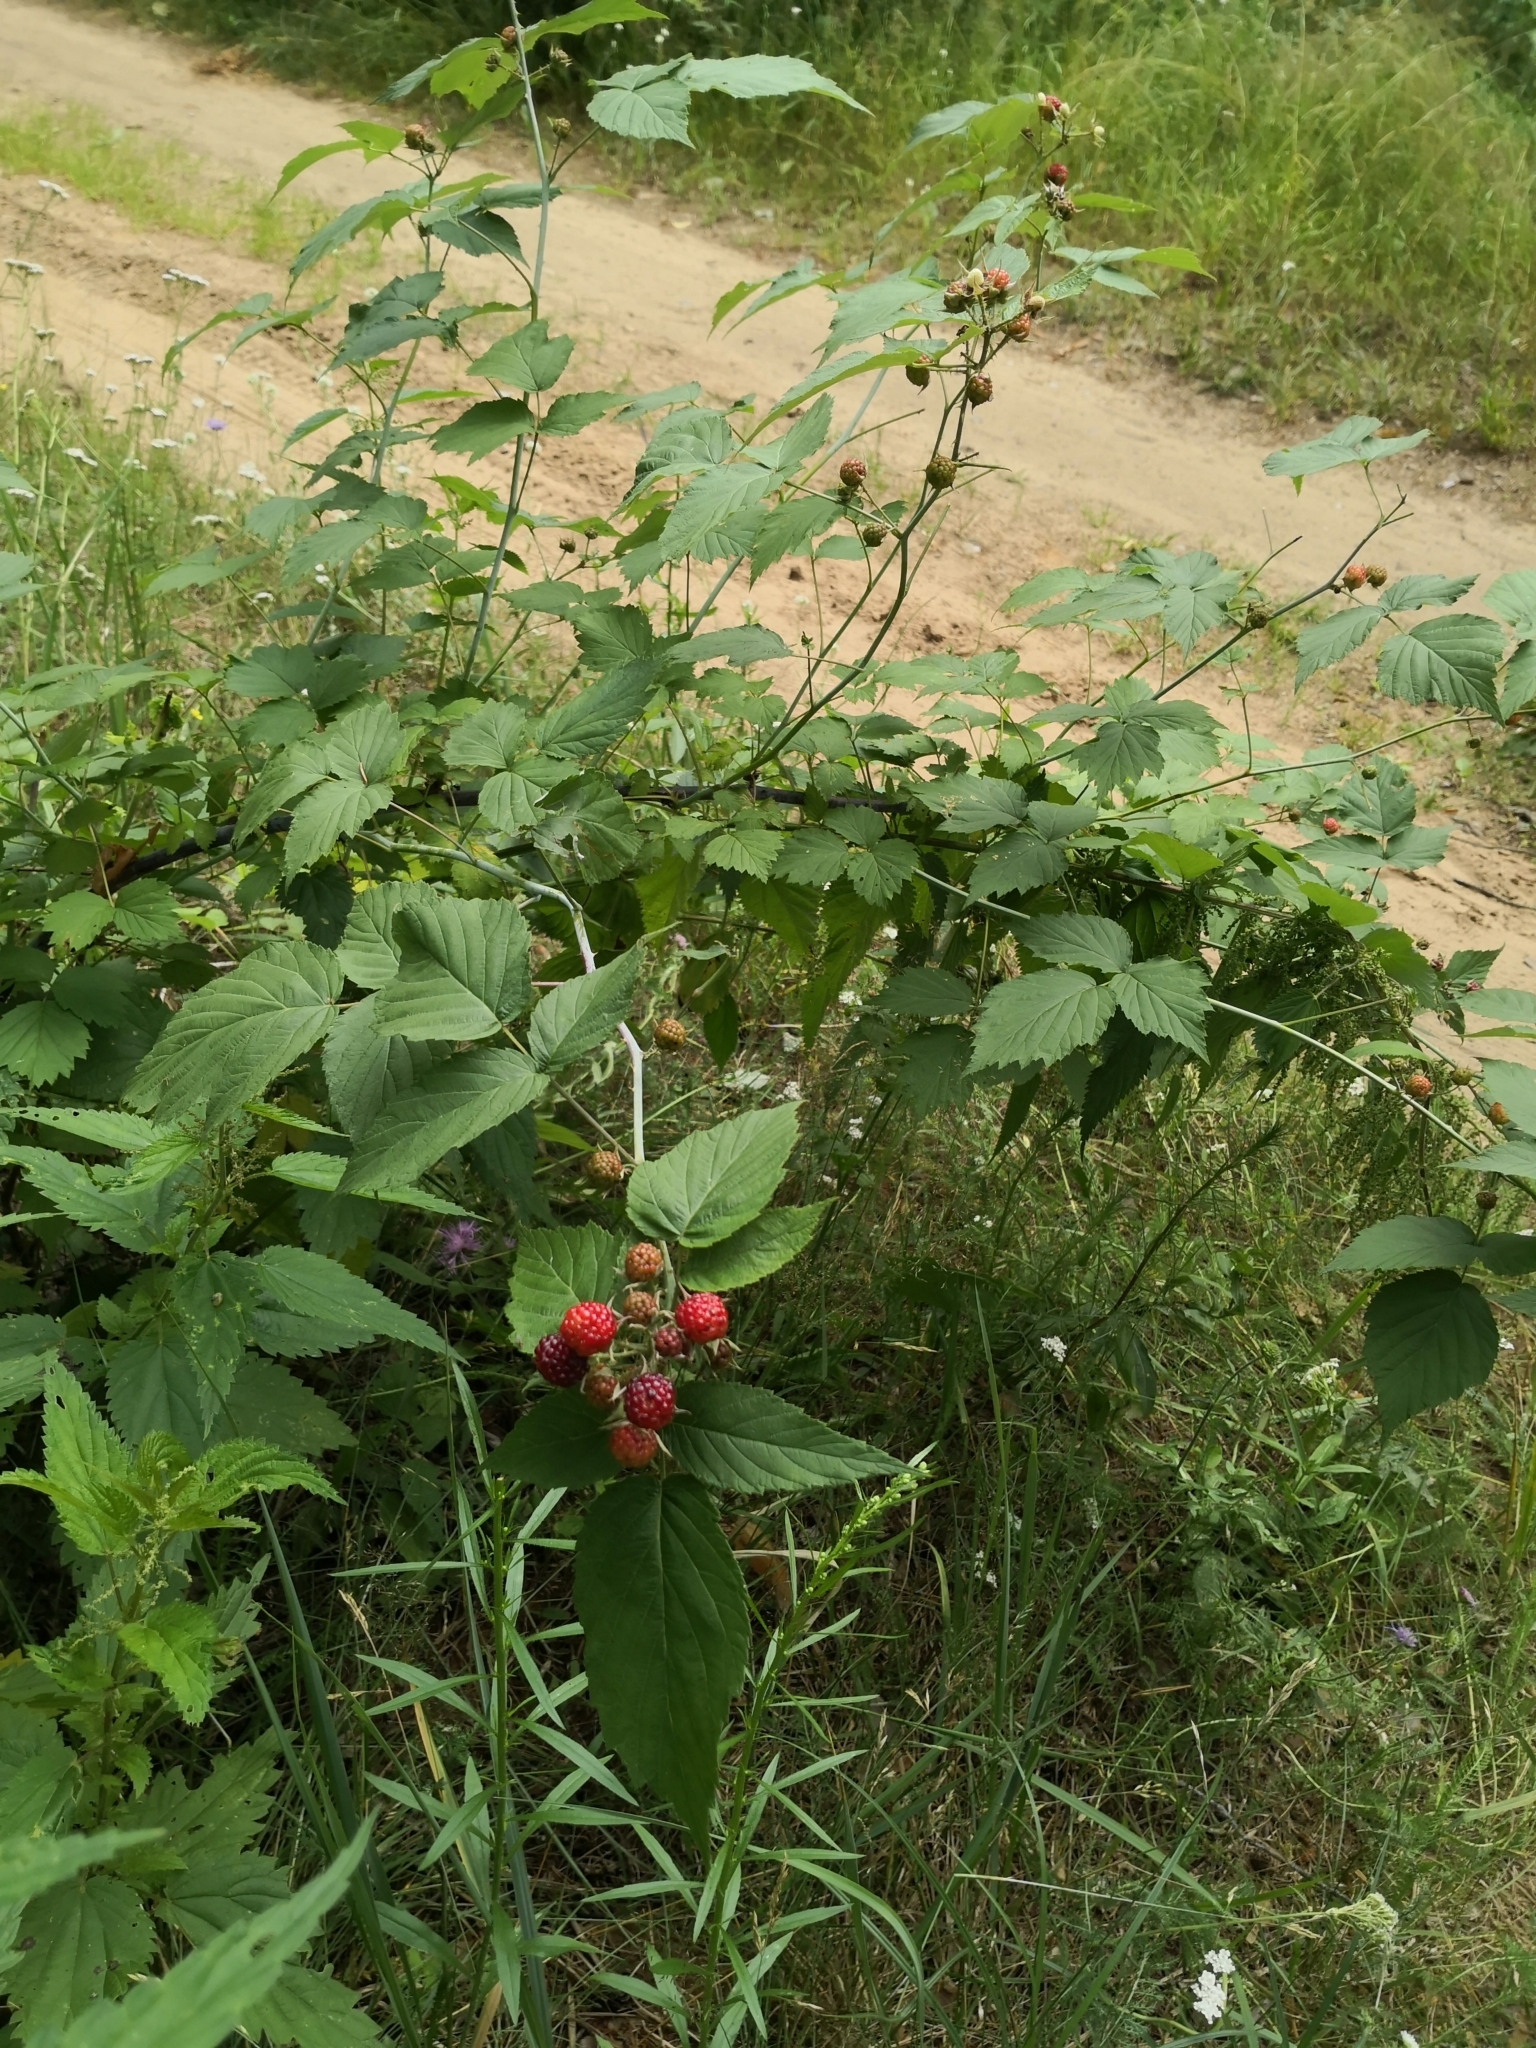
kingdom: Plantae
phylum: Tracheophyta
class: Magnoliopsida
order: Rosales
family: Rosaceae
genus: Rubus
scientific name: Rubus occidentalis
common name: Black raspberry
